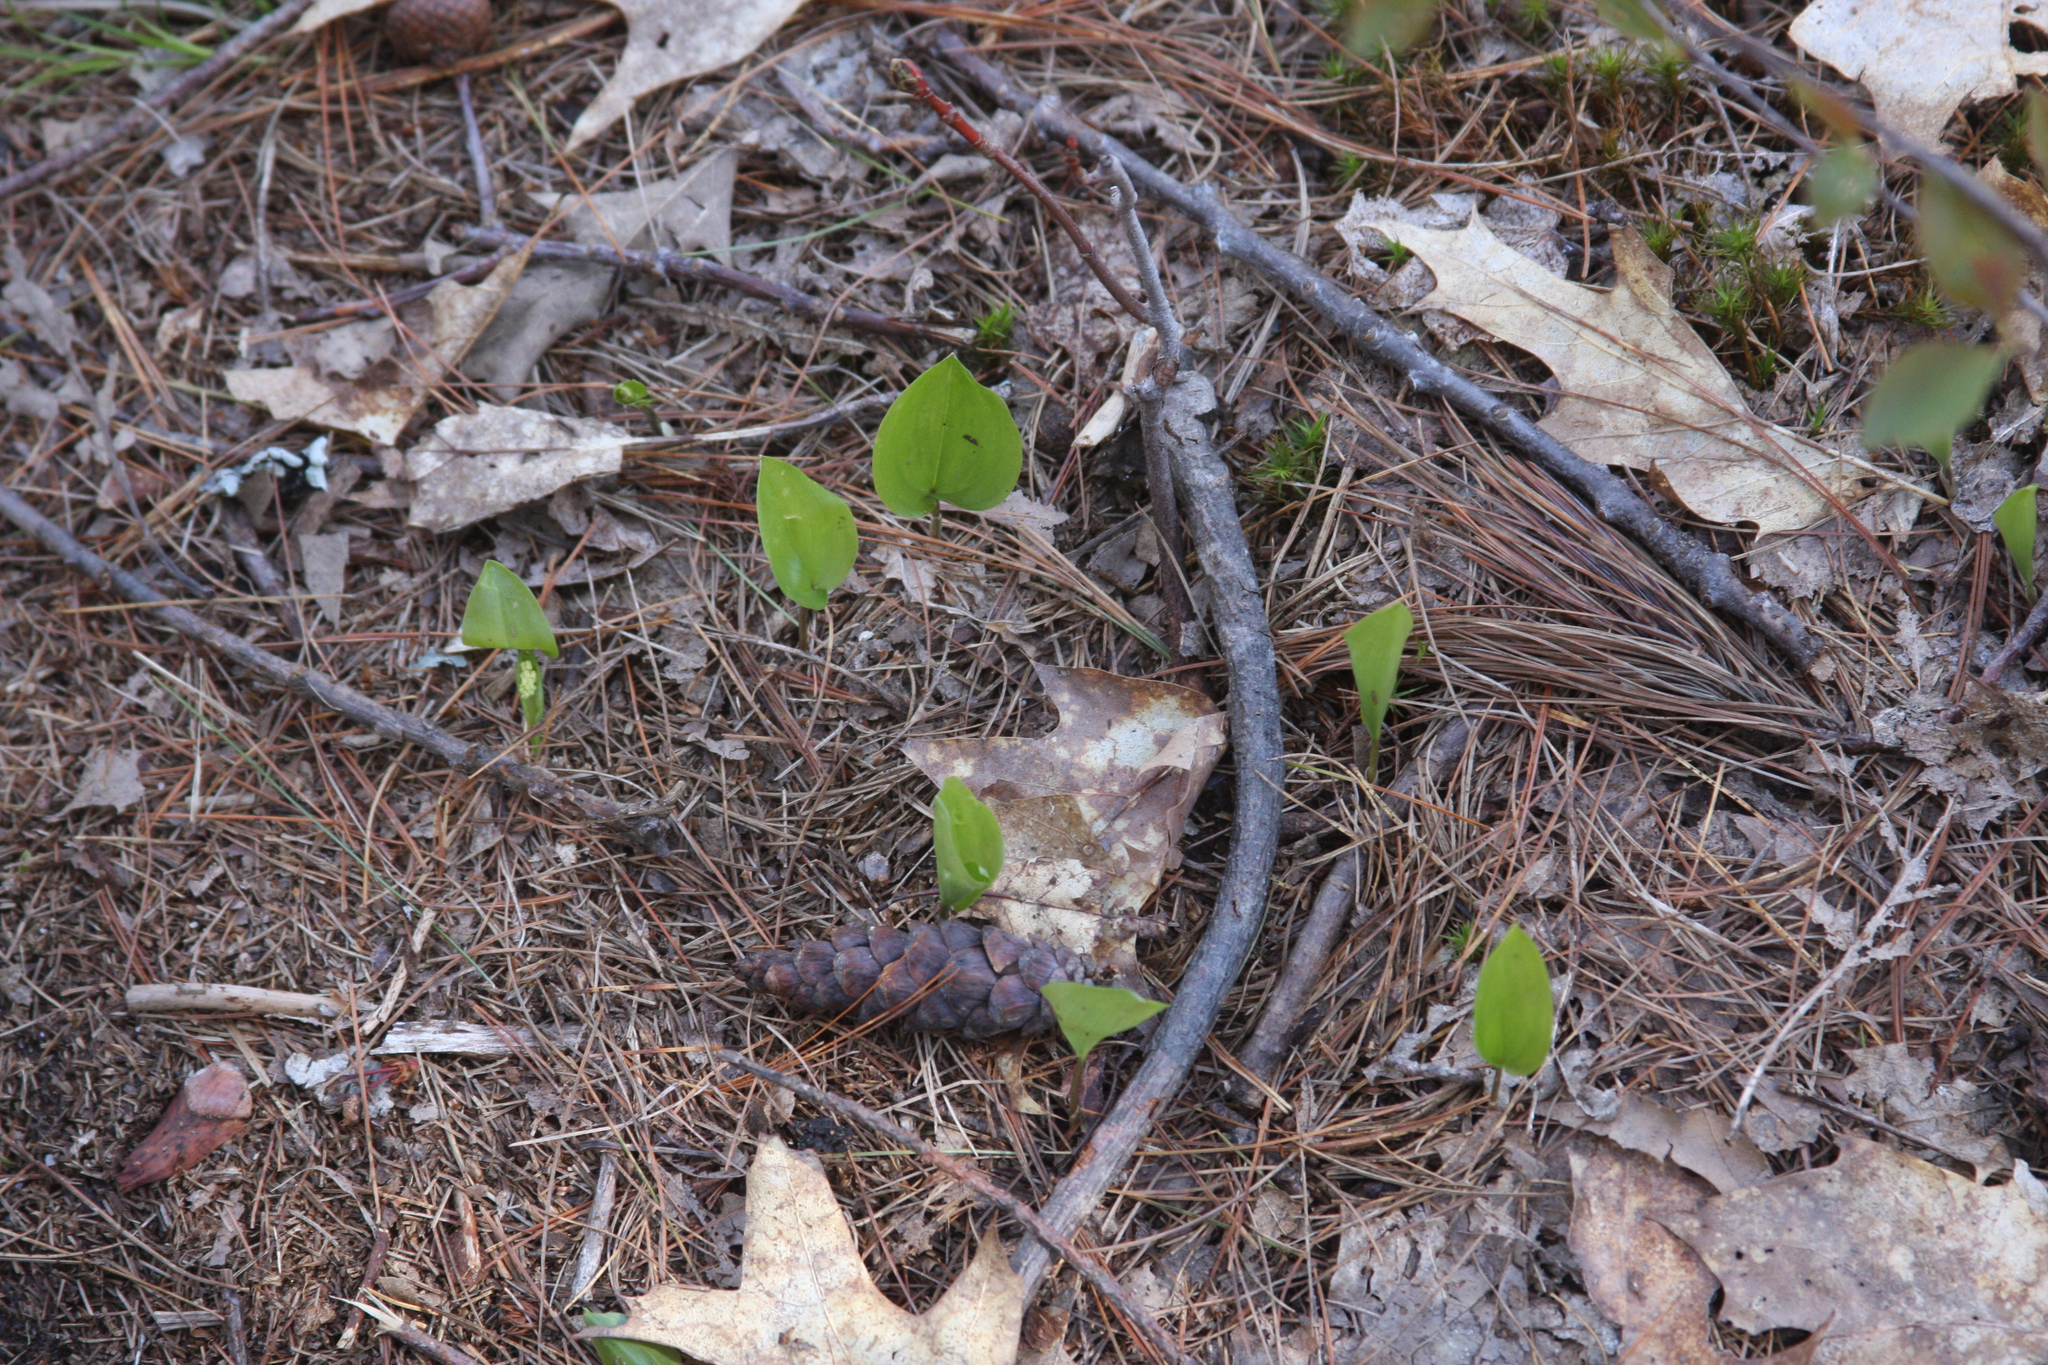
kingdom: Plantae
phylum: Tracheophyta
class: Liliopsida
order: Asparagales
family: Asparagaceae
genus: Maianthemum
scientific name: Maianthemum canadense
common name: False lily-of-the-valley
